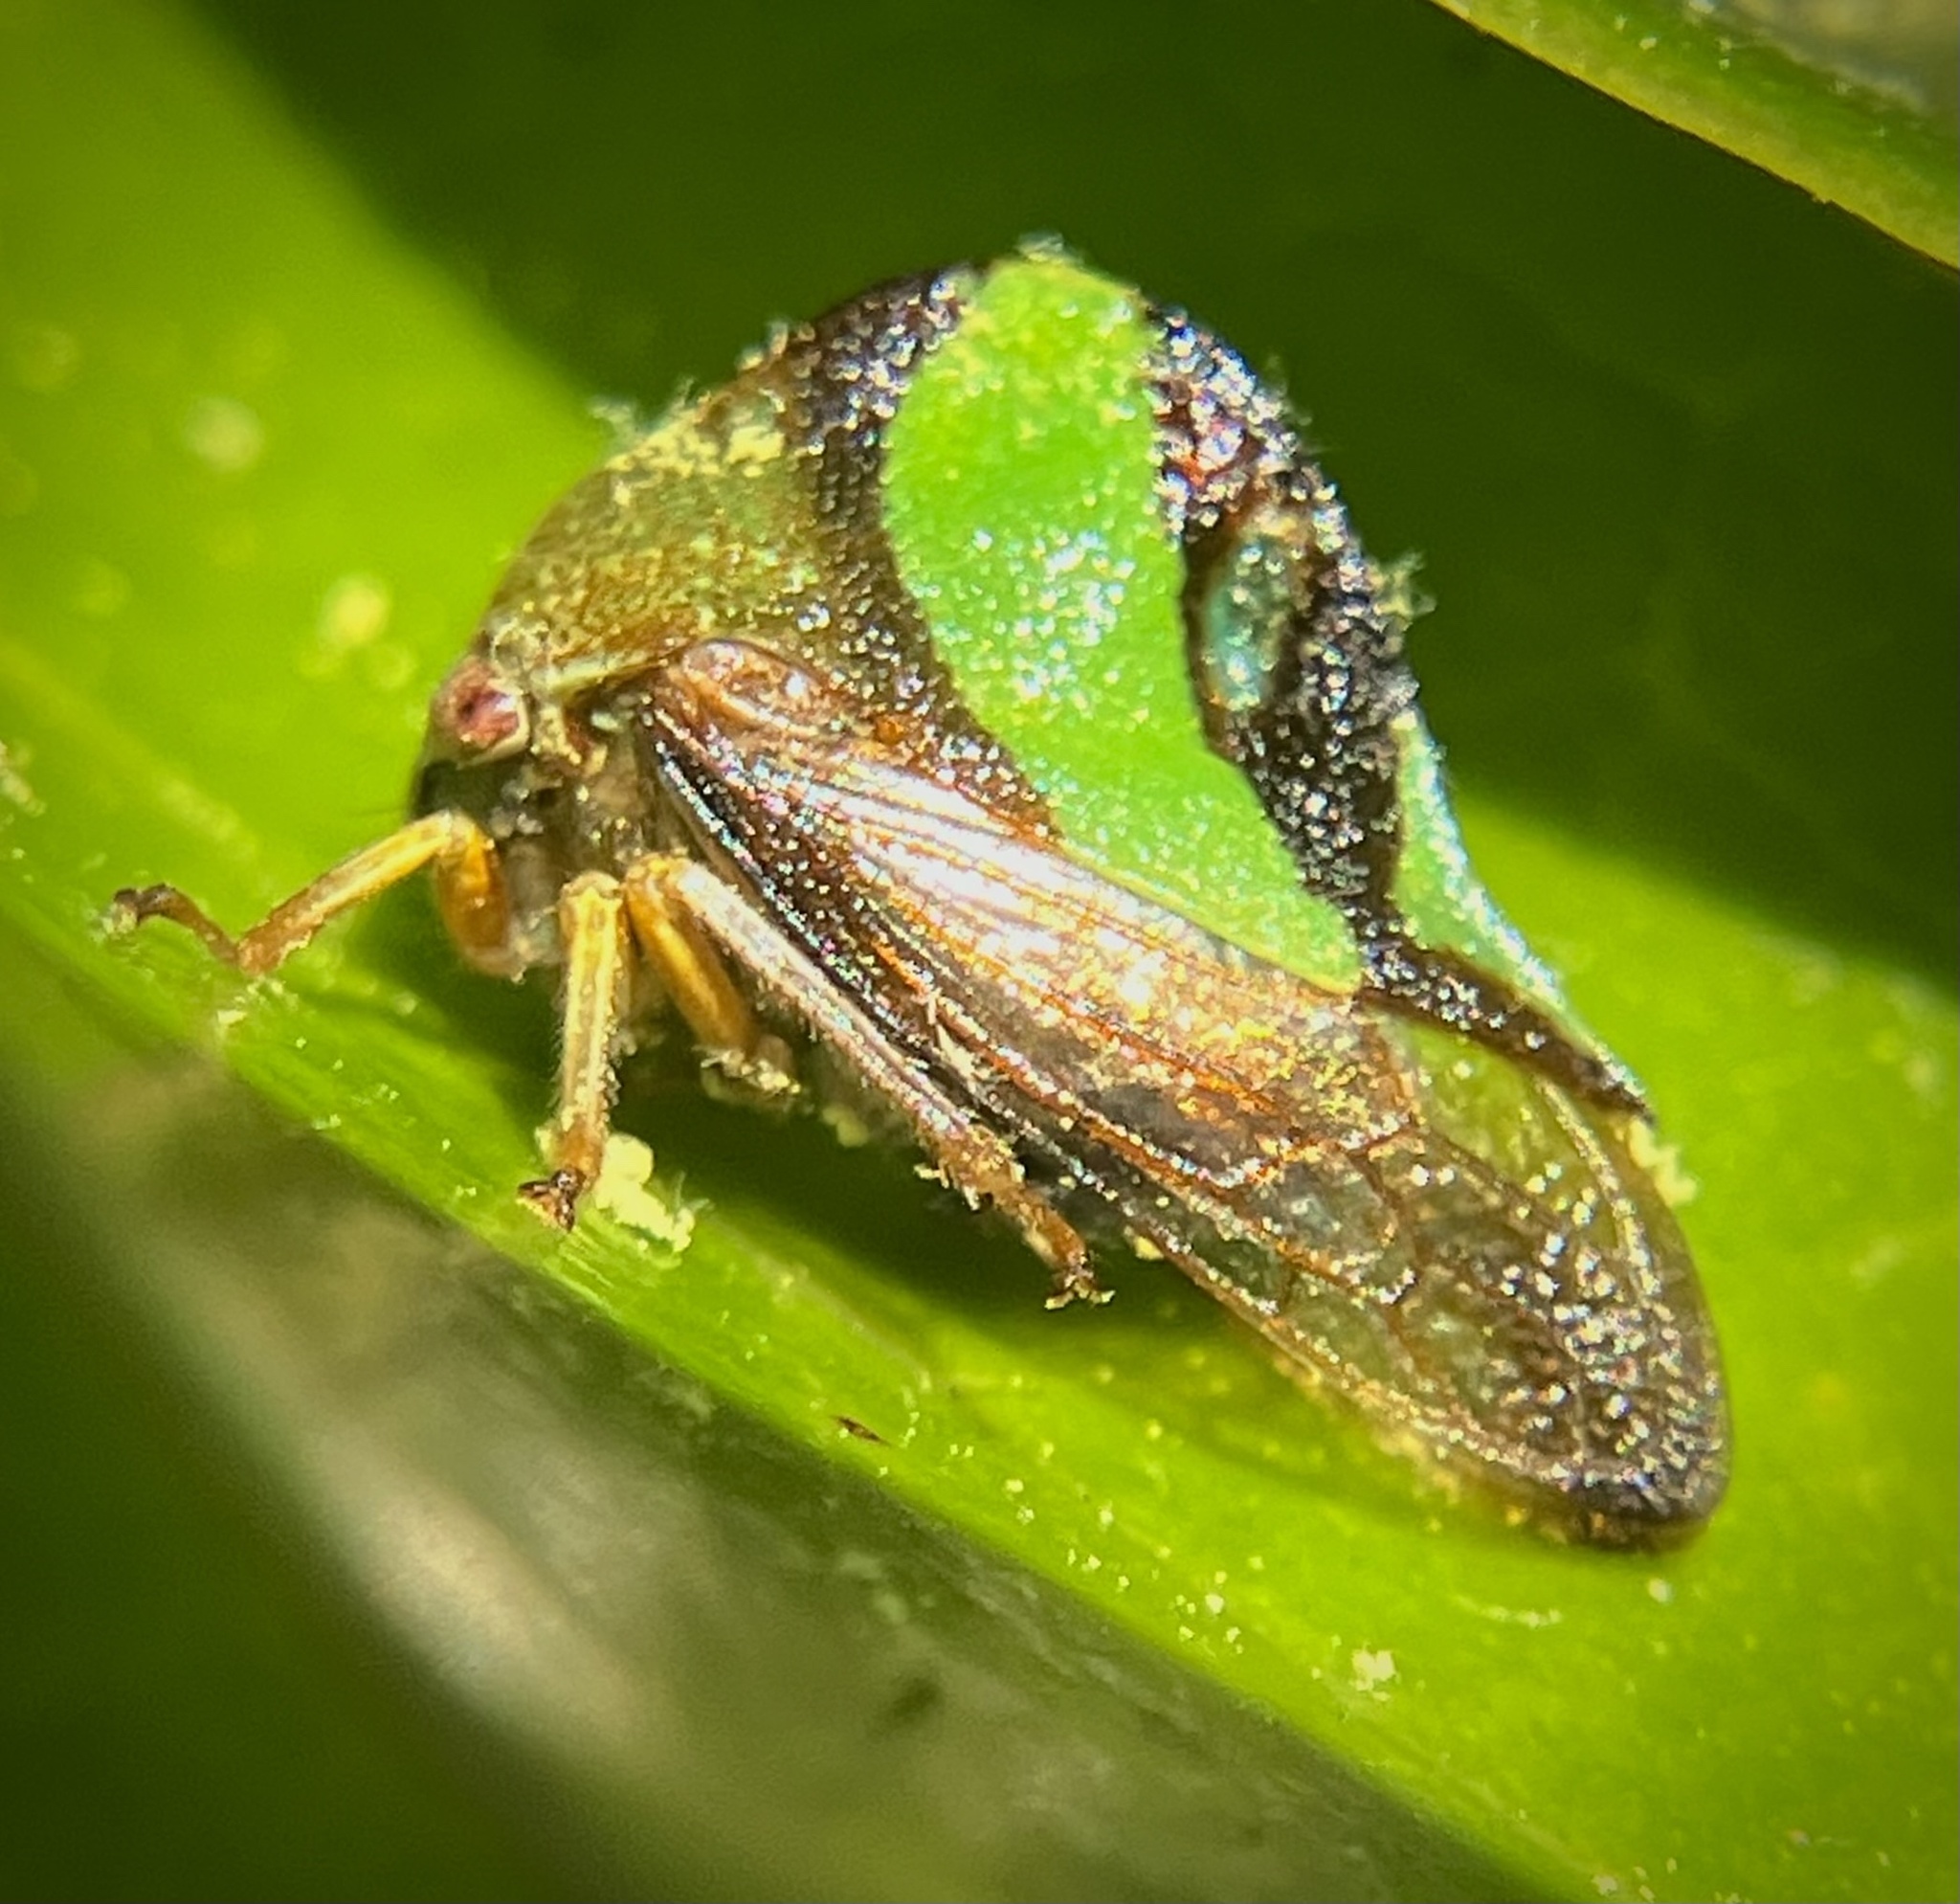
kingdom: Animalia
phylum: Arthropoda
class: Insecta
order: Hemiptera
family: Membracidae
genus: Smilia
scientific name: Smilia fasciata
